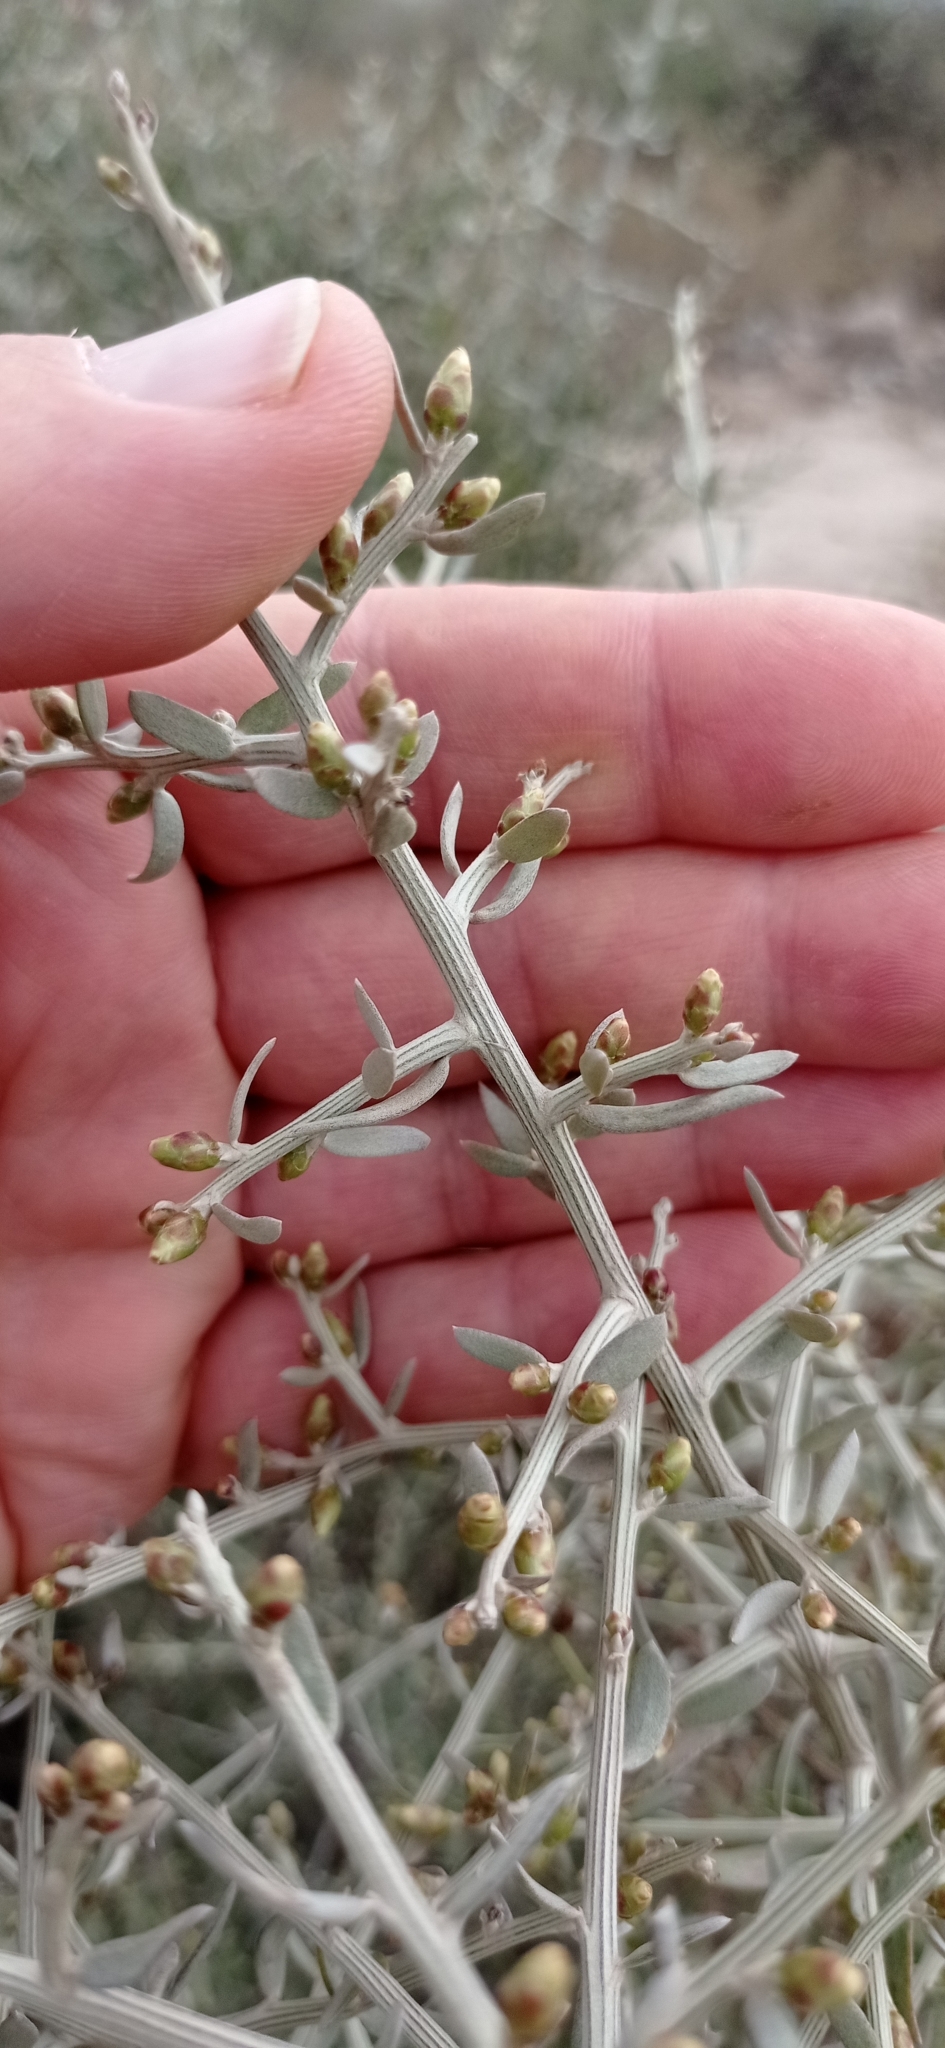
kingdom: Plantae
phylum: Tracheophyta
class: Magnoliopsida
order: Asterales
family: Asteraceae
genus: Cyclolepis
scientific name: Cyclolepis genistoides
